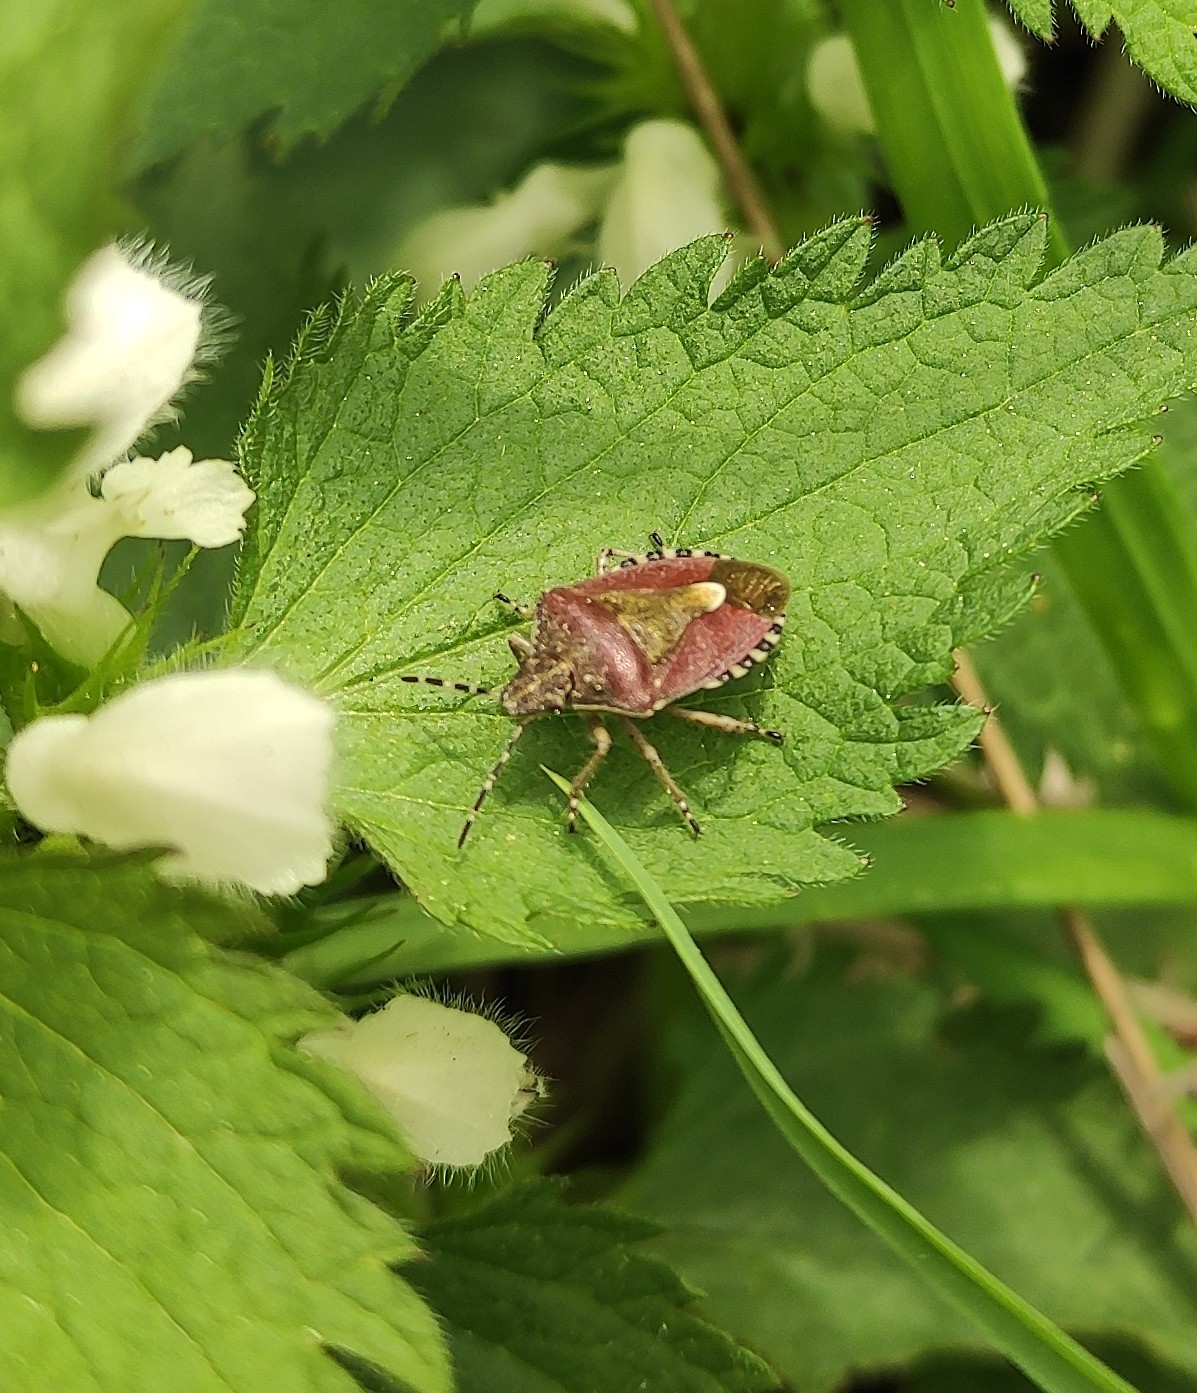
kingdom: Animalia
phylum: Arthropoda
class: Insecta
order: Hemiptera
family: Pentatomidae
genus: Dolycoris
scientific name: Dolycoris baccarum
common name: Sloe bug
